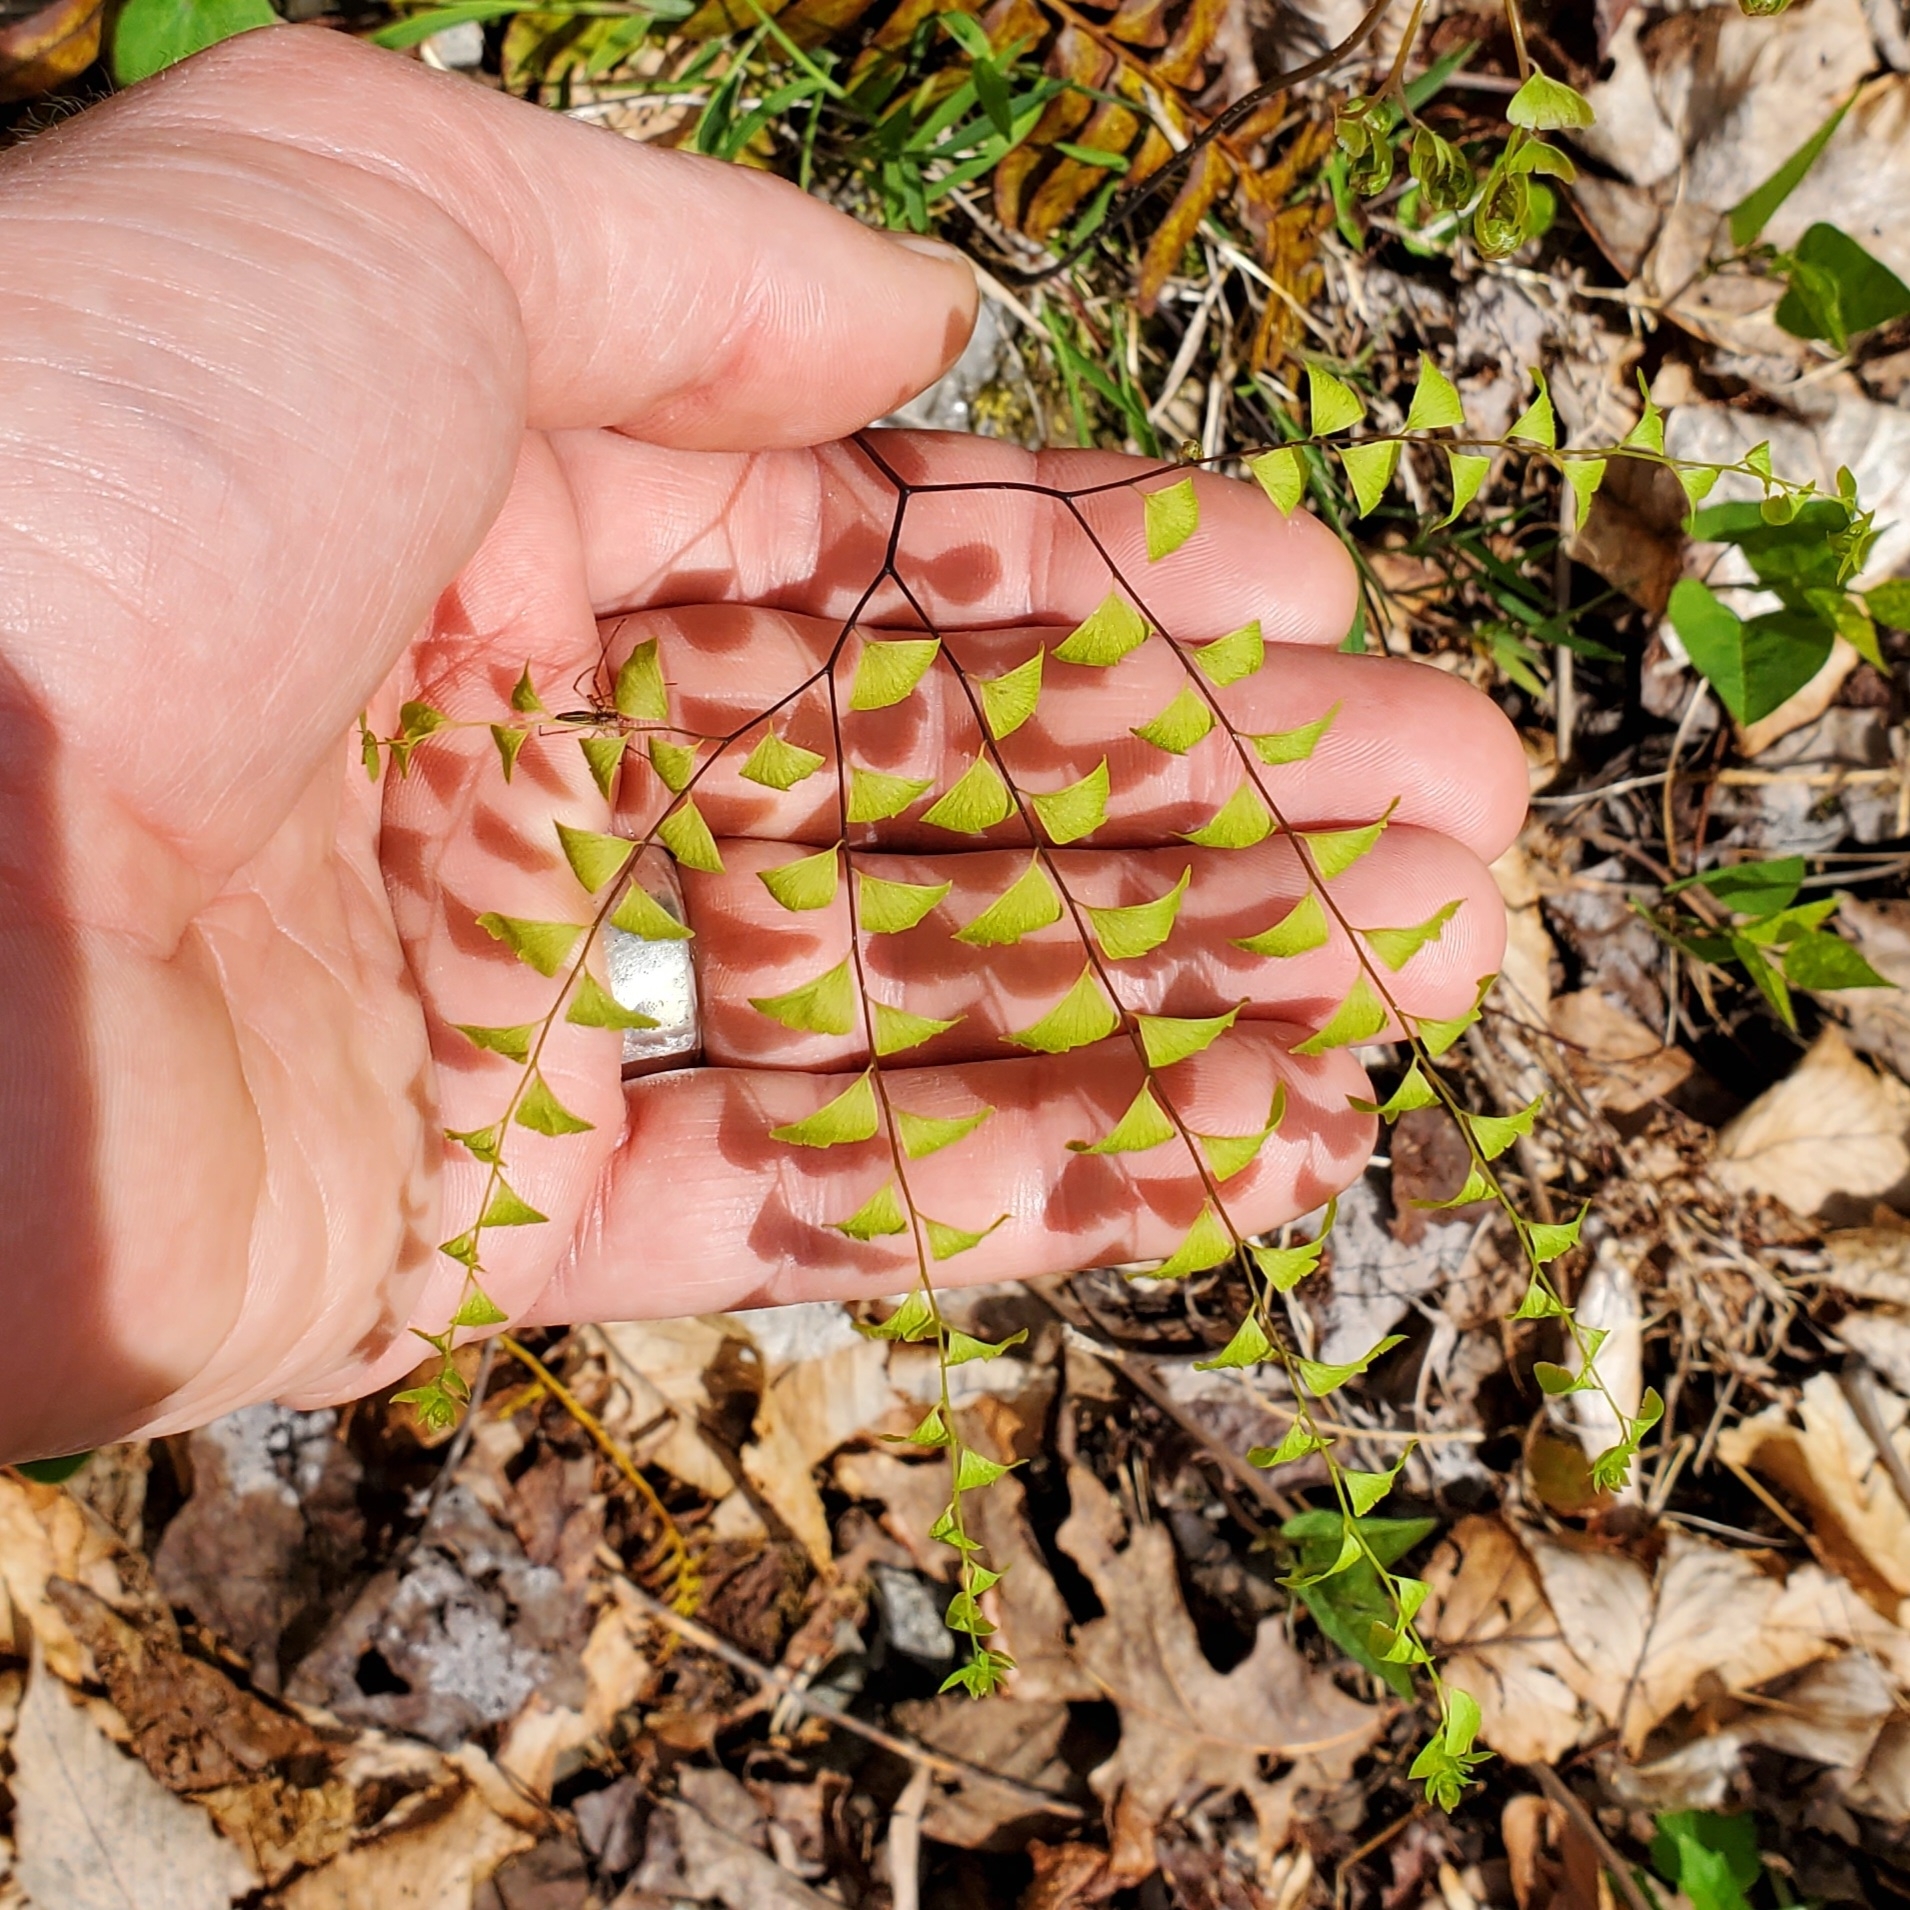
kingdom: Plantae
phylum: Tracheophyta
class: Polypodiopsida
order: Polypodiales
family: Pteridaceae
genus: Adiantum
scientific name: Adiantum pedatum
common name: Five-finger fern
